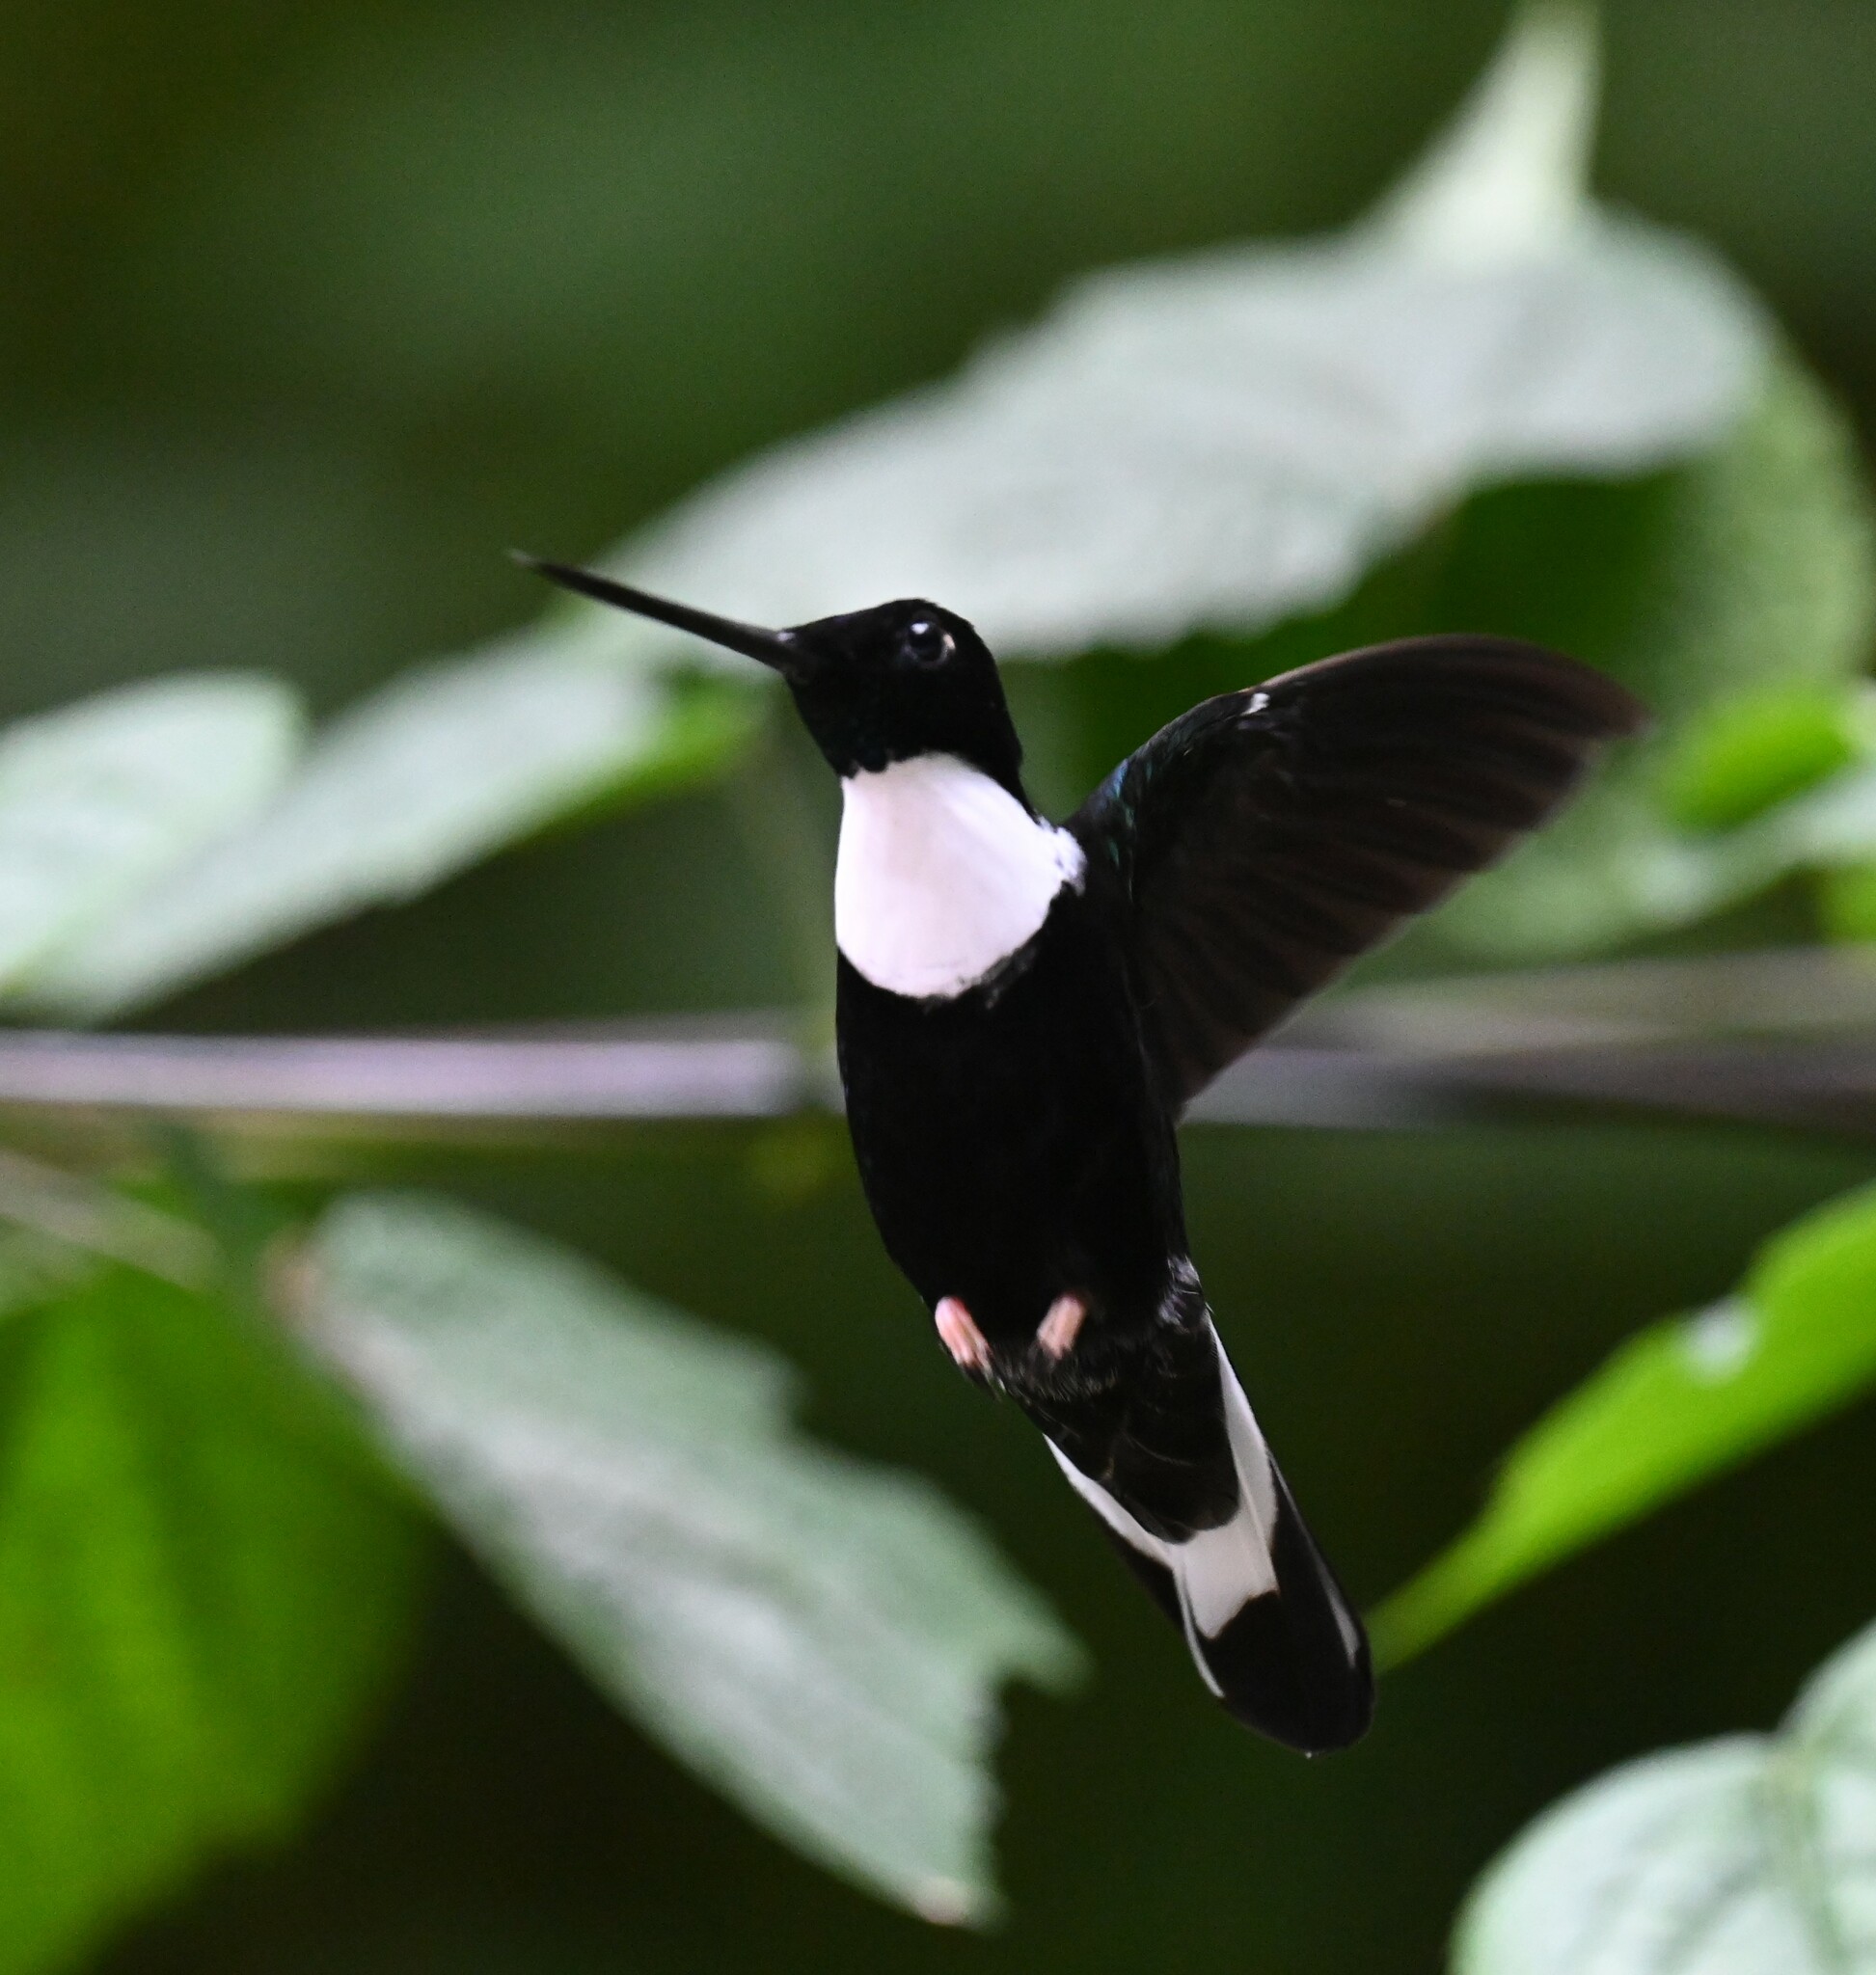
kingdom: Animalia
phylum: Chordata
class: Aves
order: Apodiformes
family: Trochilidae
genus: Coeligena
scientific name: Coeligena torquata
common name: Collared inca
